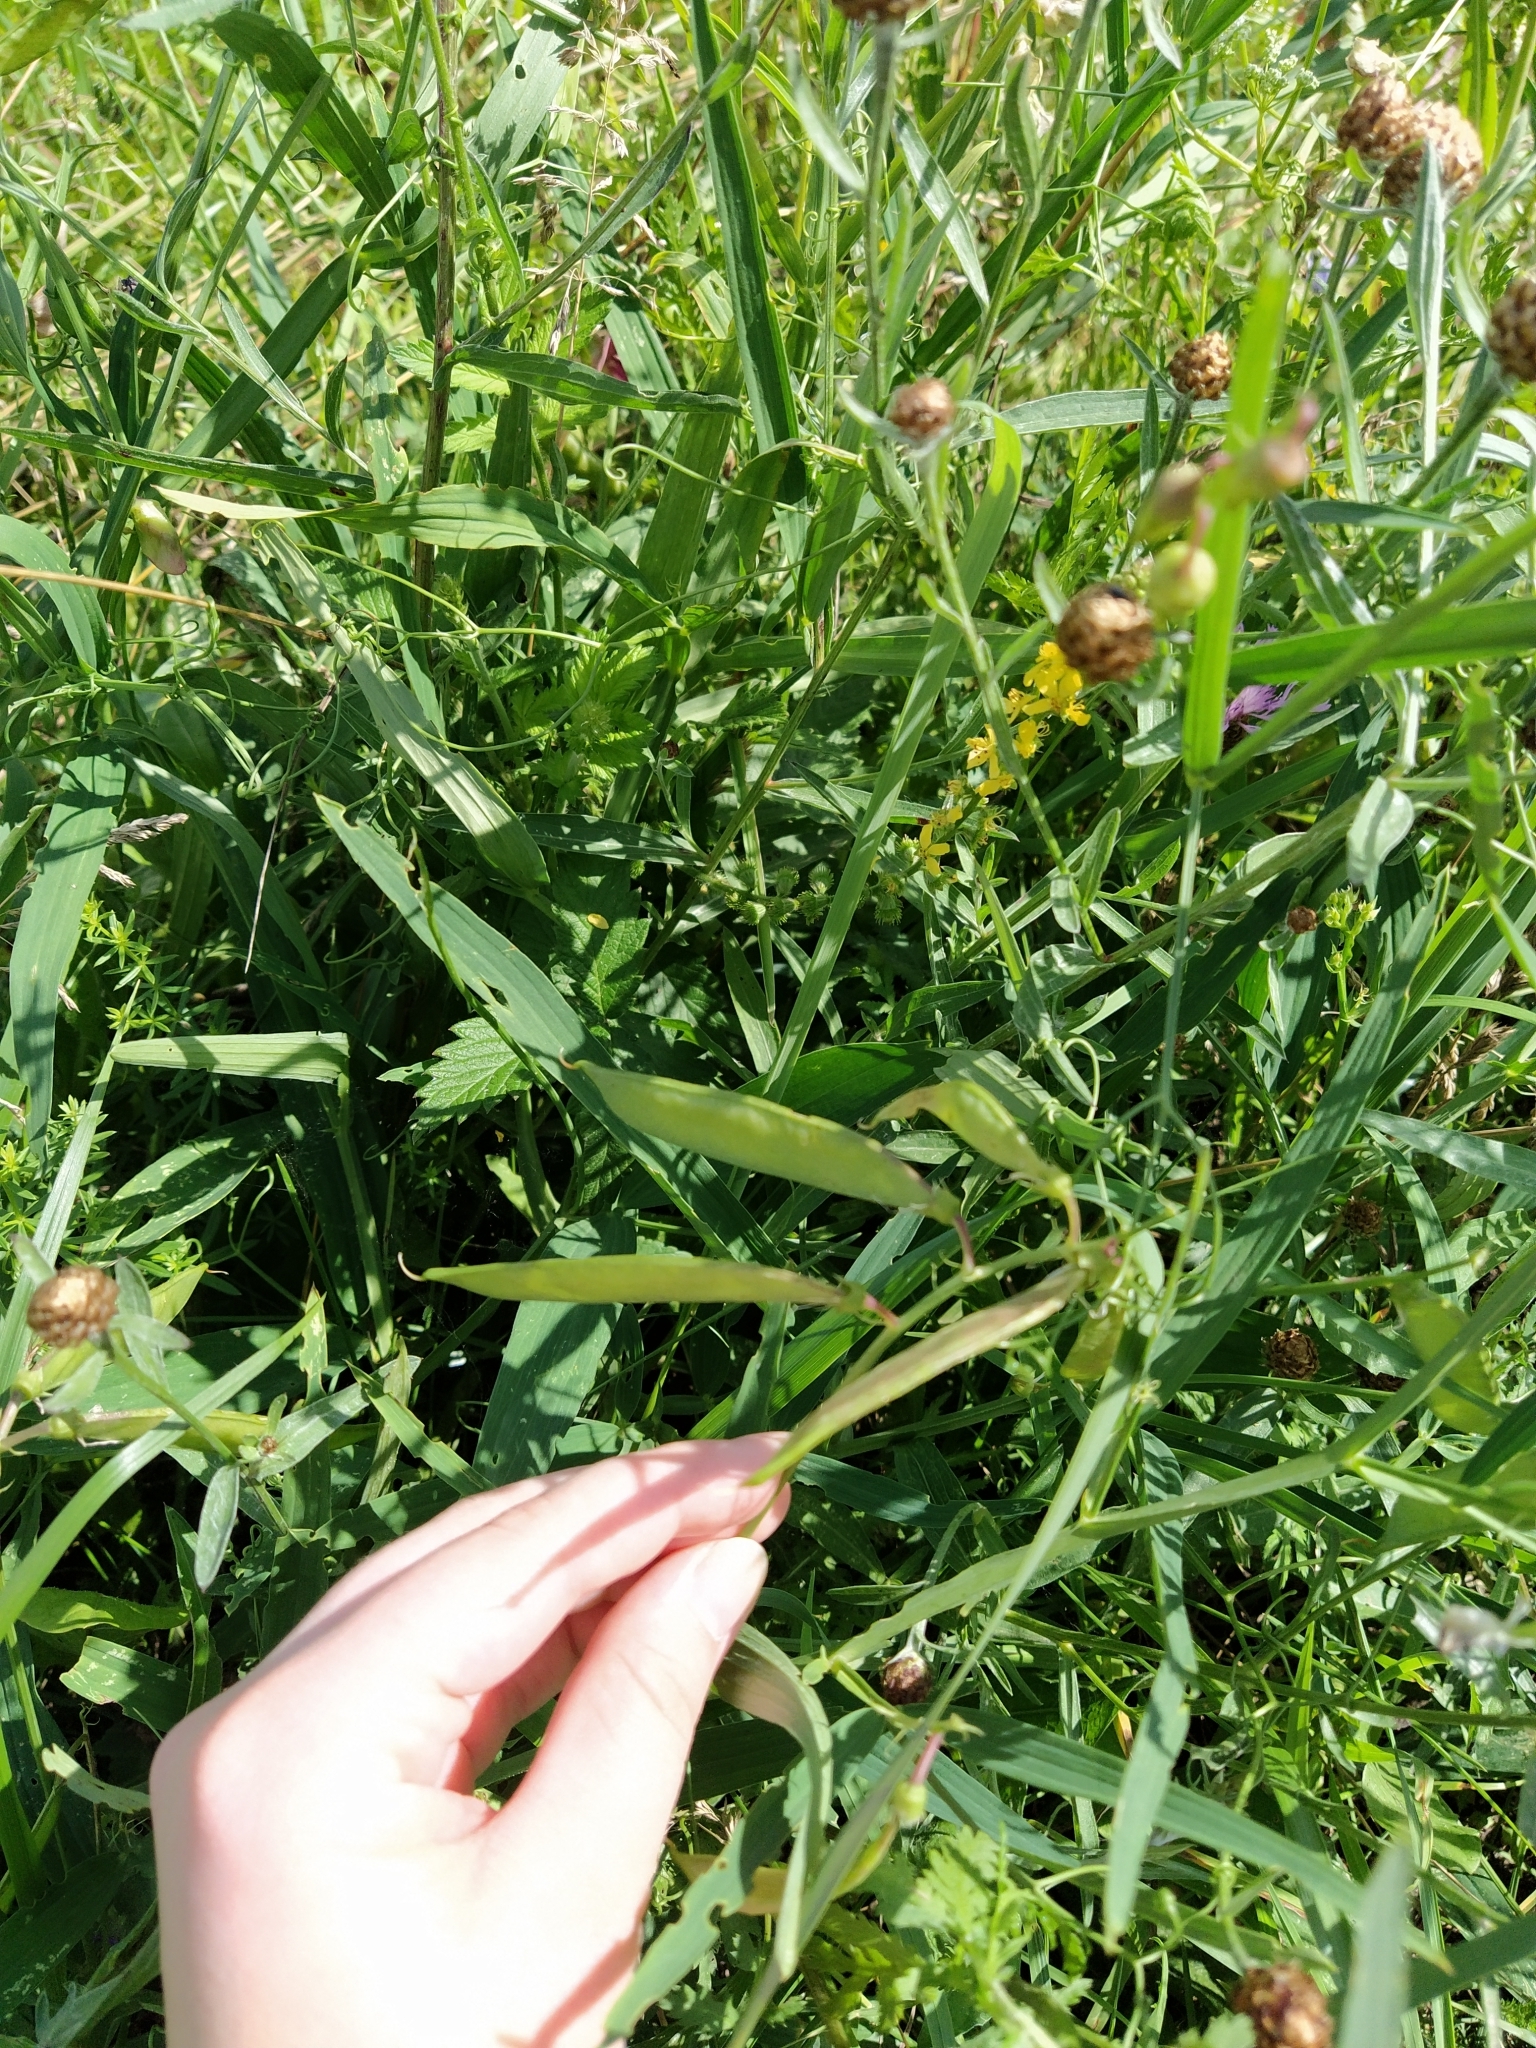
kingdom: Plantae
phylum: Tracheophyta
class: Magnoliopsida
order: Fabales
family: Fabaceae
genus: Lathyrus
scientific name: Lathyrus sylvestris
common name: Flat pea
